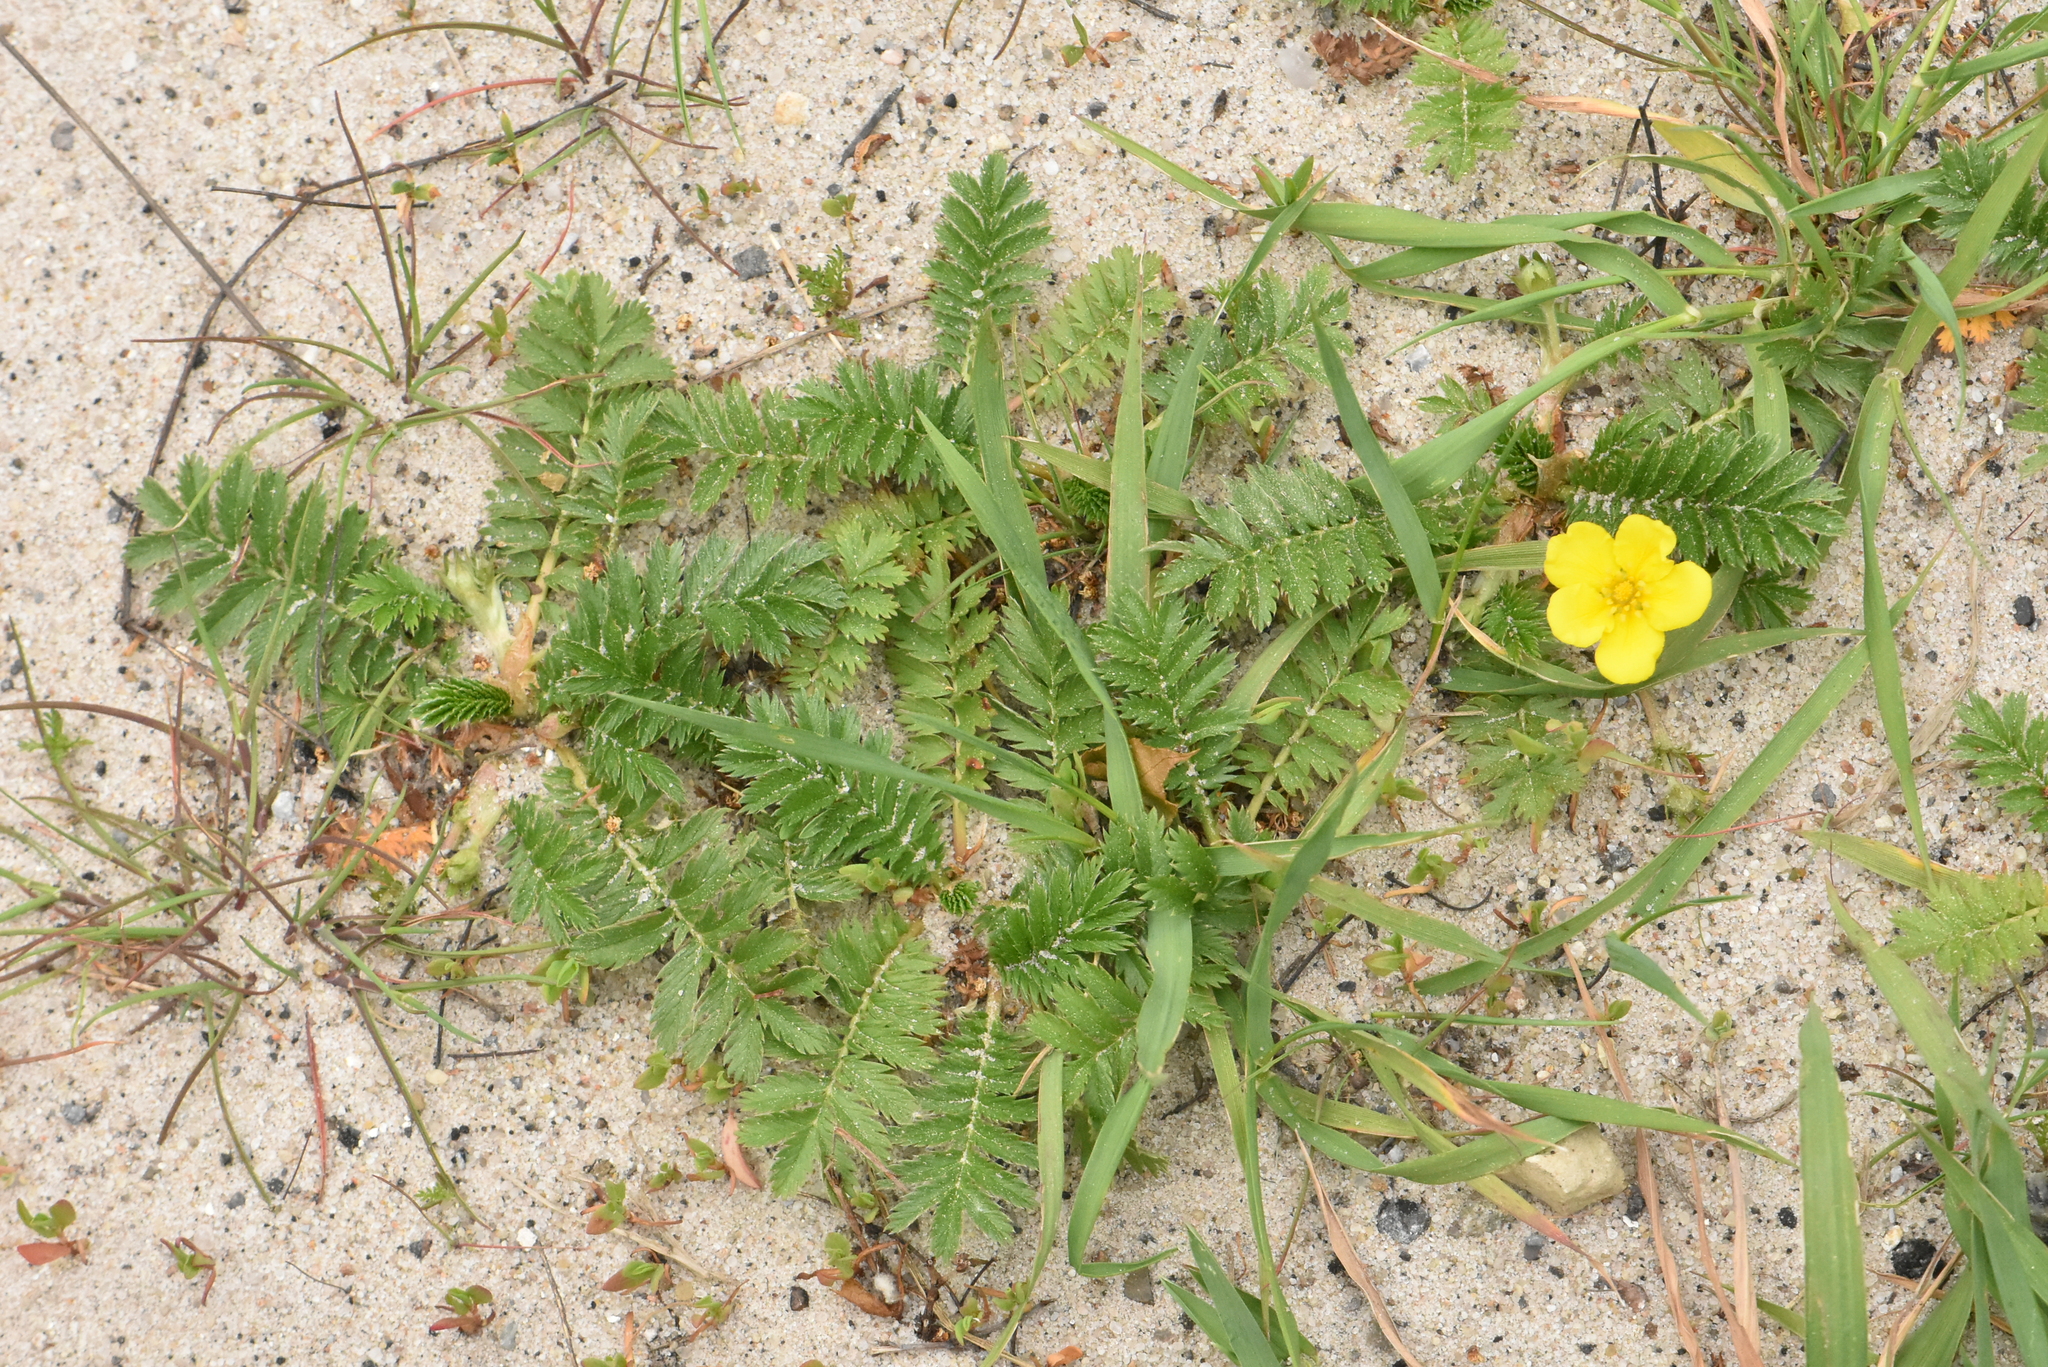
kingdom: Plantae
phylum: Tracheophyta
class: Magnoliopsida
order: Rosales
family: Rosaceae
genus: Argentina
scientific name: Argentina anserina
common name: Common silverweed
